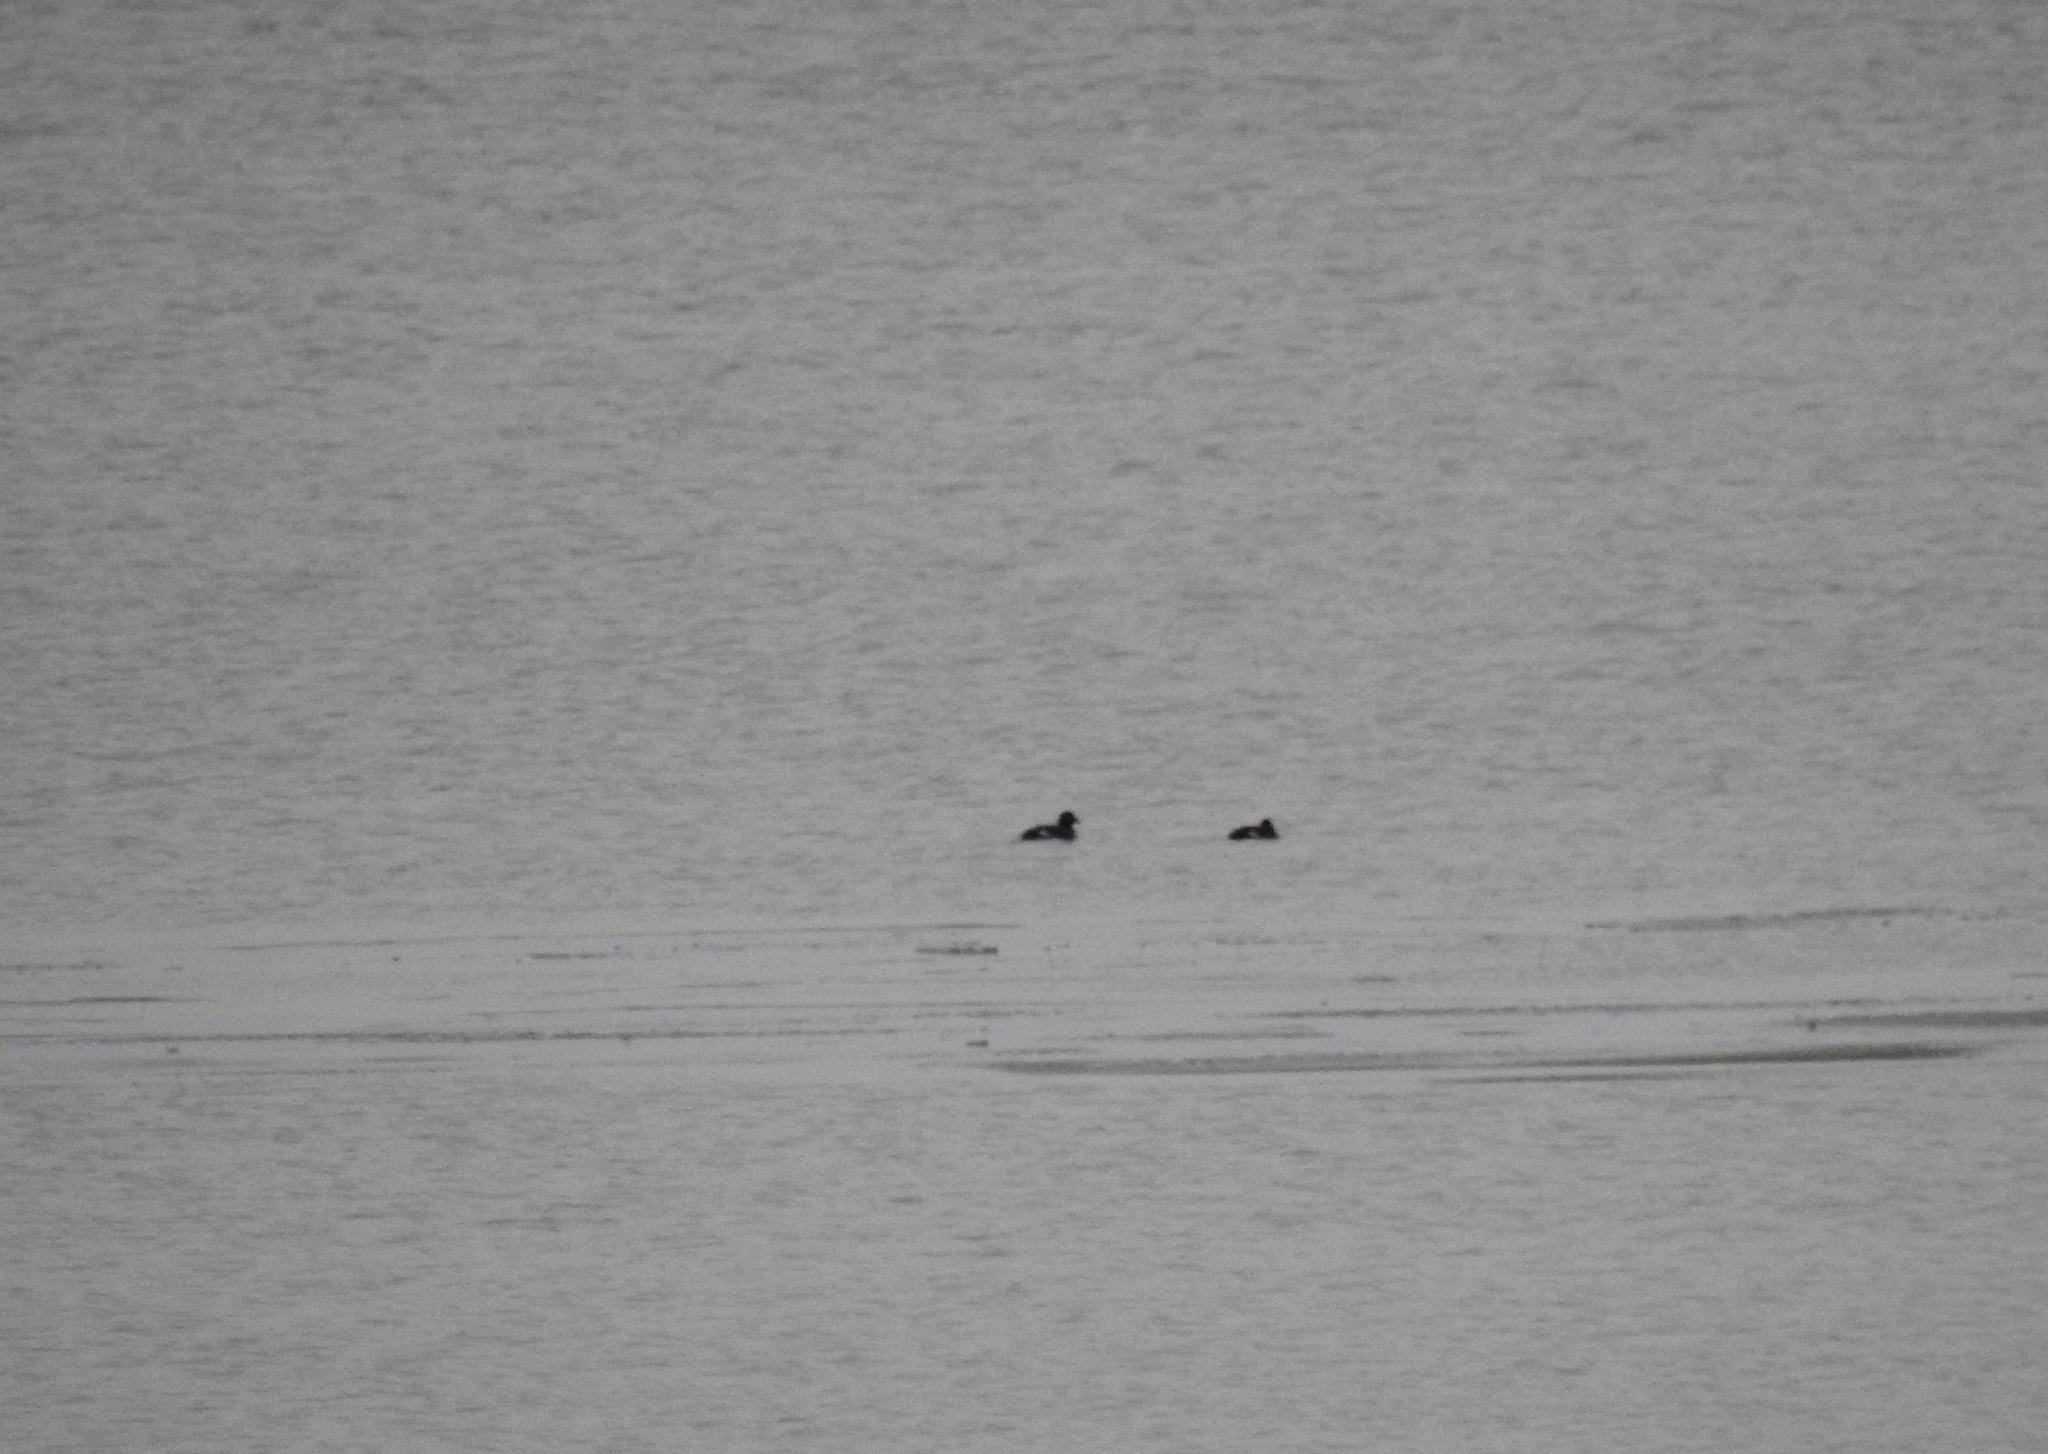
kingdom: Animalia
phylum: Chordata
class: Aves
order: Anseriformes
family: Anatidae
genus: Melanitta
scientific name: Melanitta deglandi
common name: White-winged scoter
